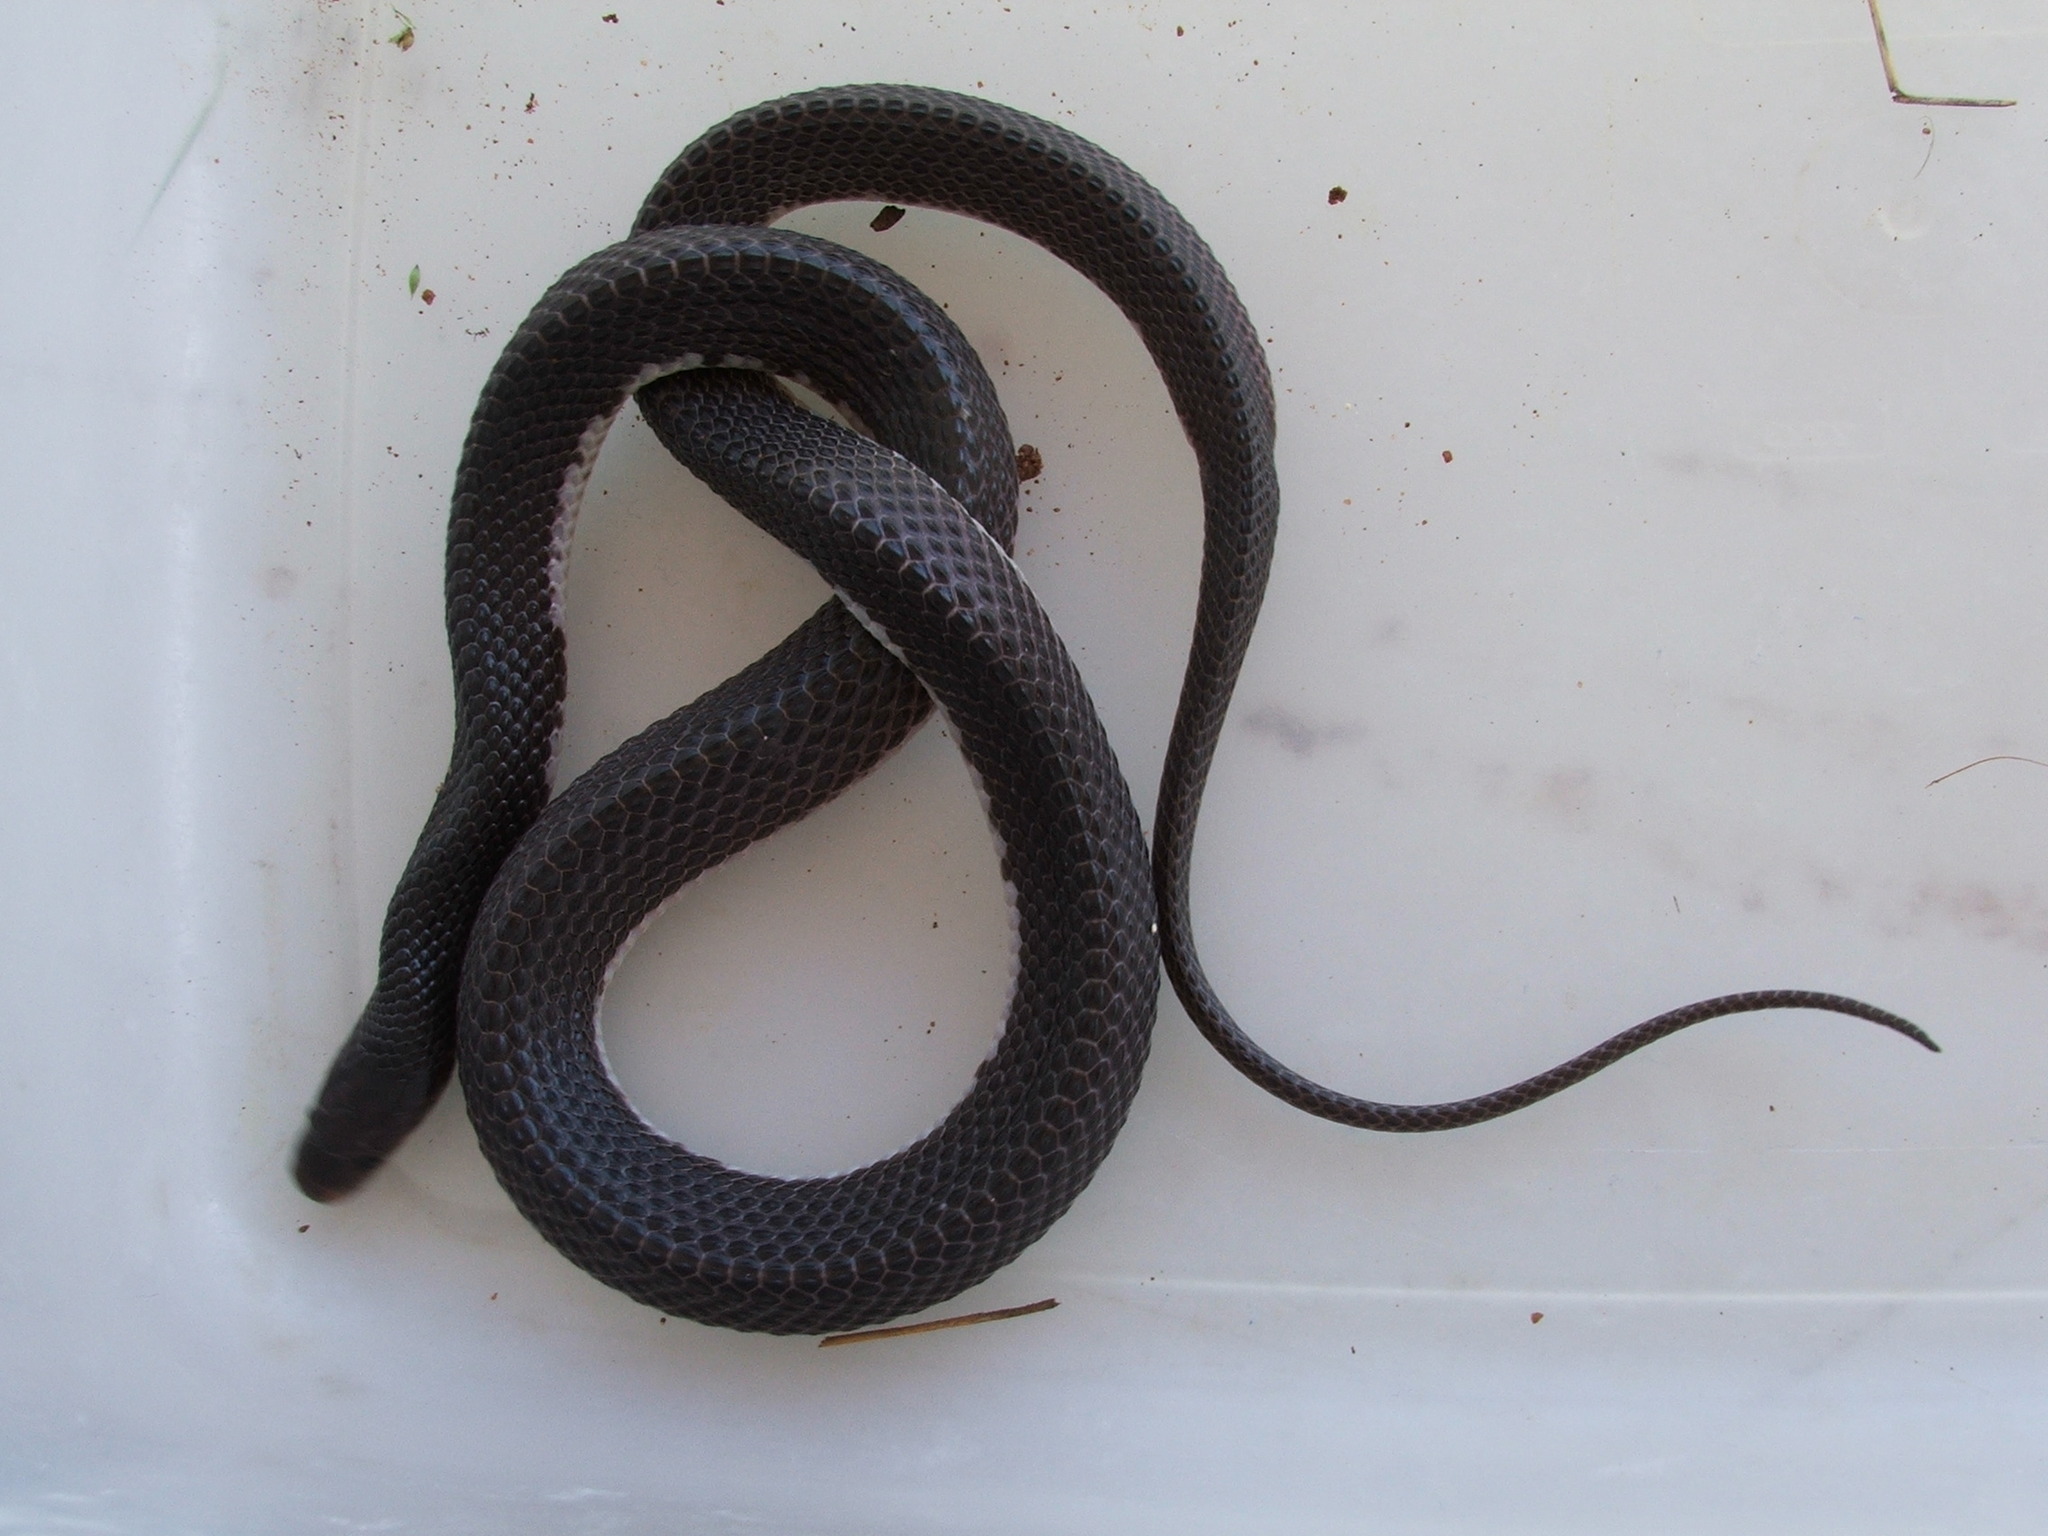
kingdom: Animalia
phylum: Chordata
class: Squamata
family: Lamprophiidae
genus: Gracililima
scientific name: Gracililima nyassae
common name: Black file snake
